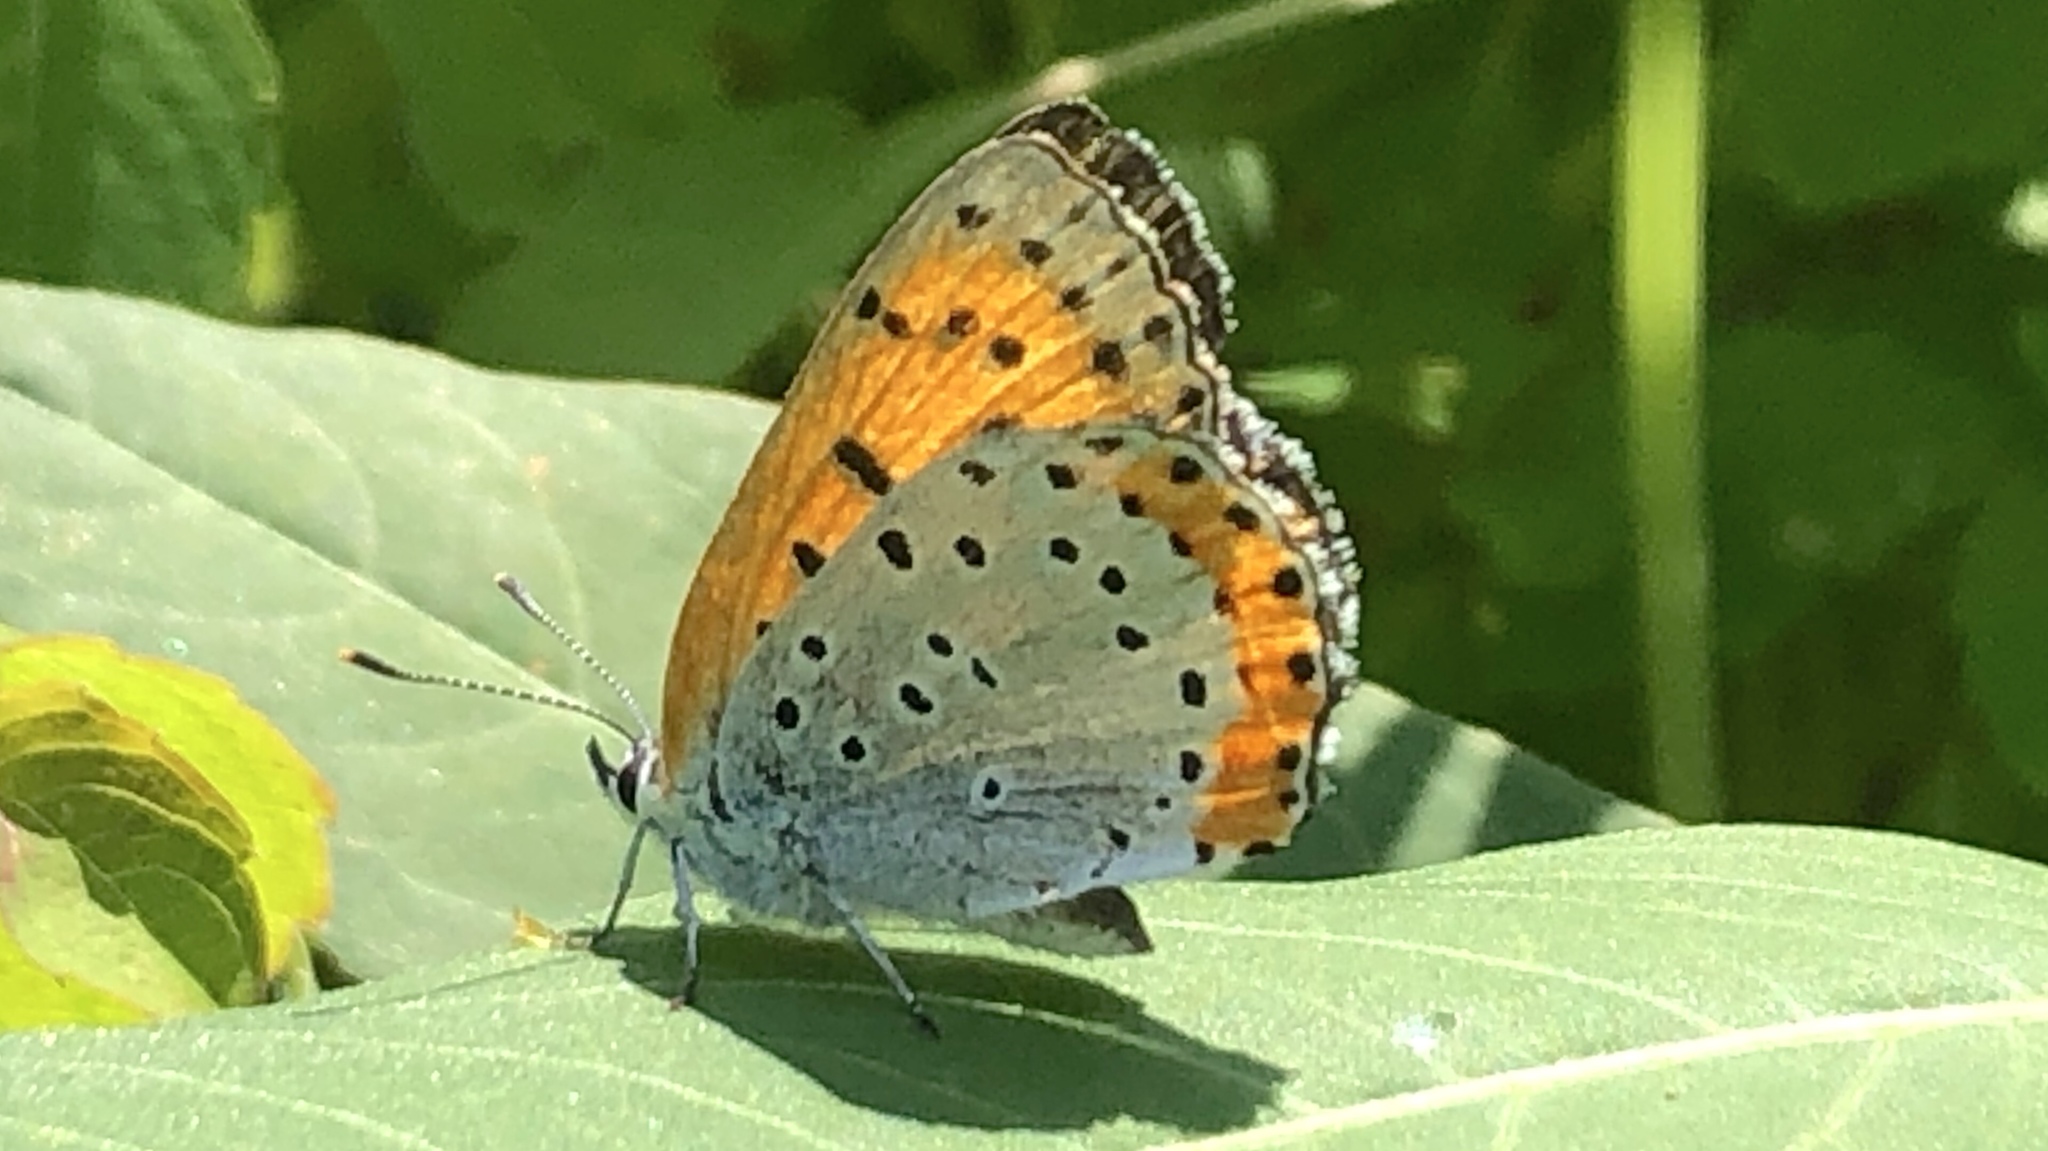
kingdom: Animalia
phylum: Arthropoda
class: Insecta
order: Lepidoptera
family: Lycaenidae
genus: Tharsalea
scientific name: Tharsalea hyllus
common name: Bronze copper
